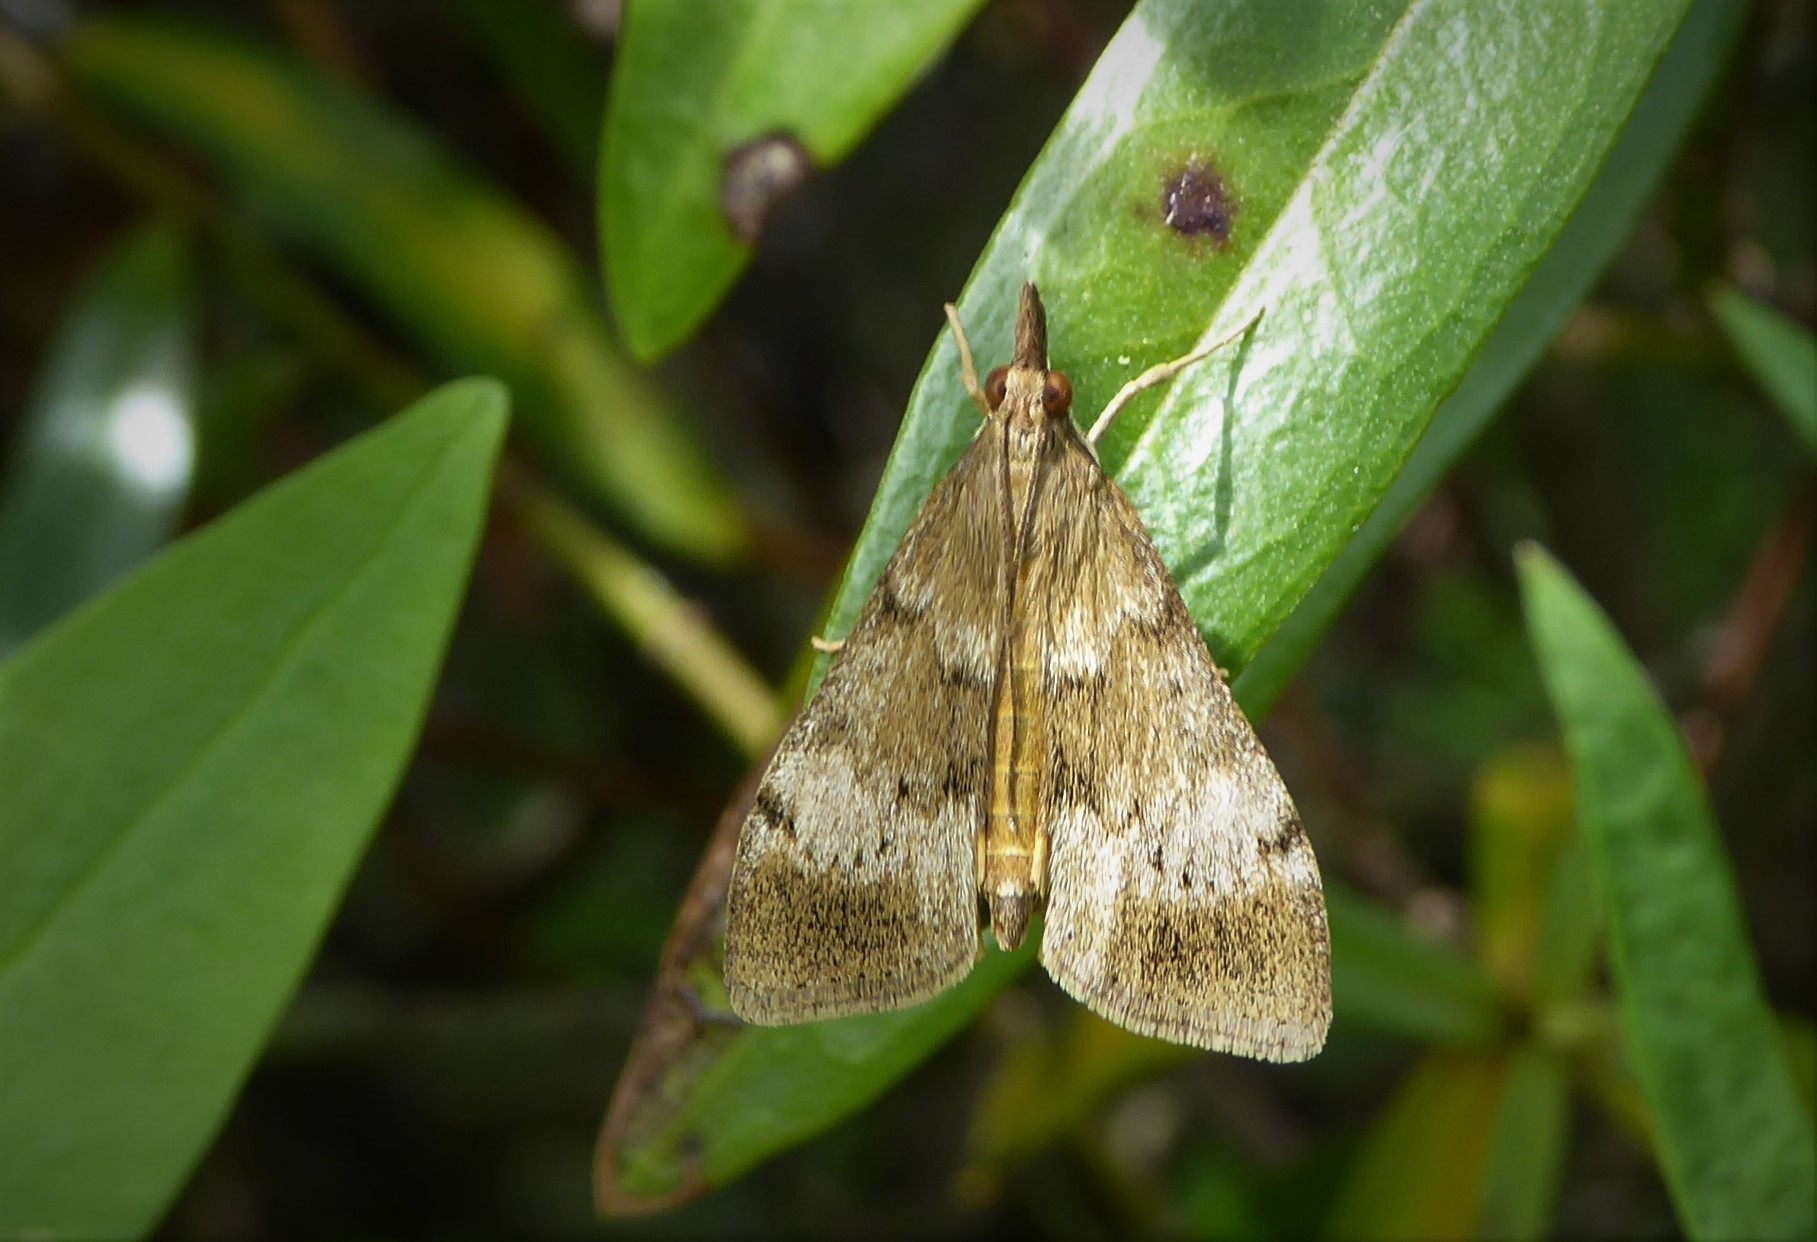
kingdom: Animalia
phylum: Arthropoda
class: Insecta
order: Lepidoptera
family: Crambidae
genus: Uresiphita
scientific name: Uresiphita
